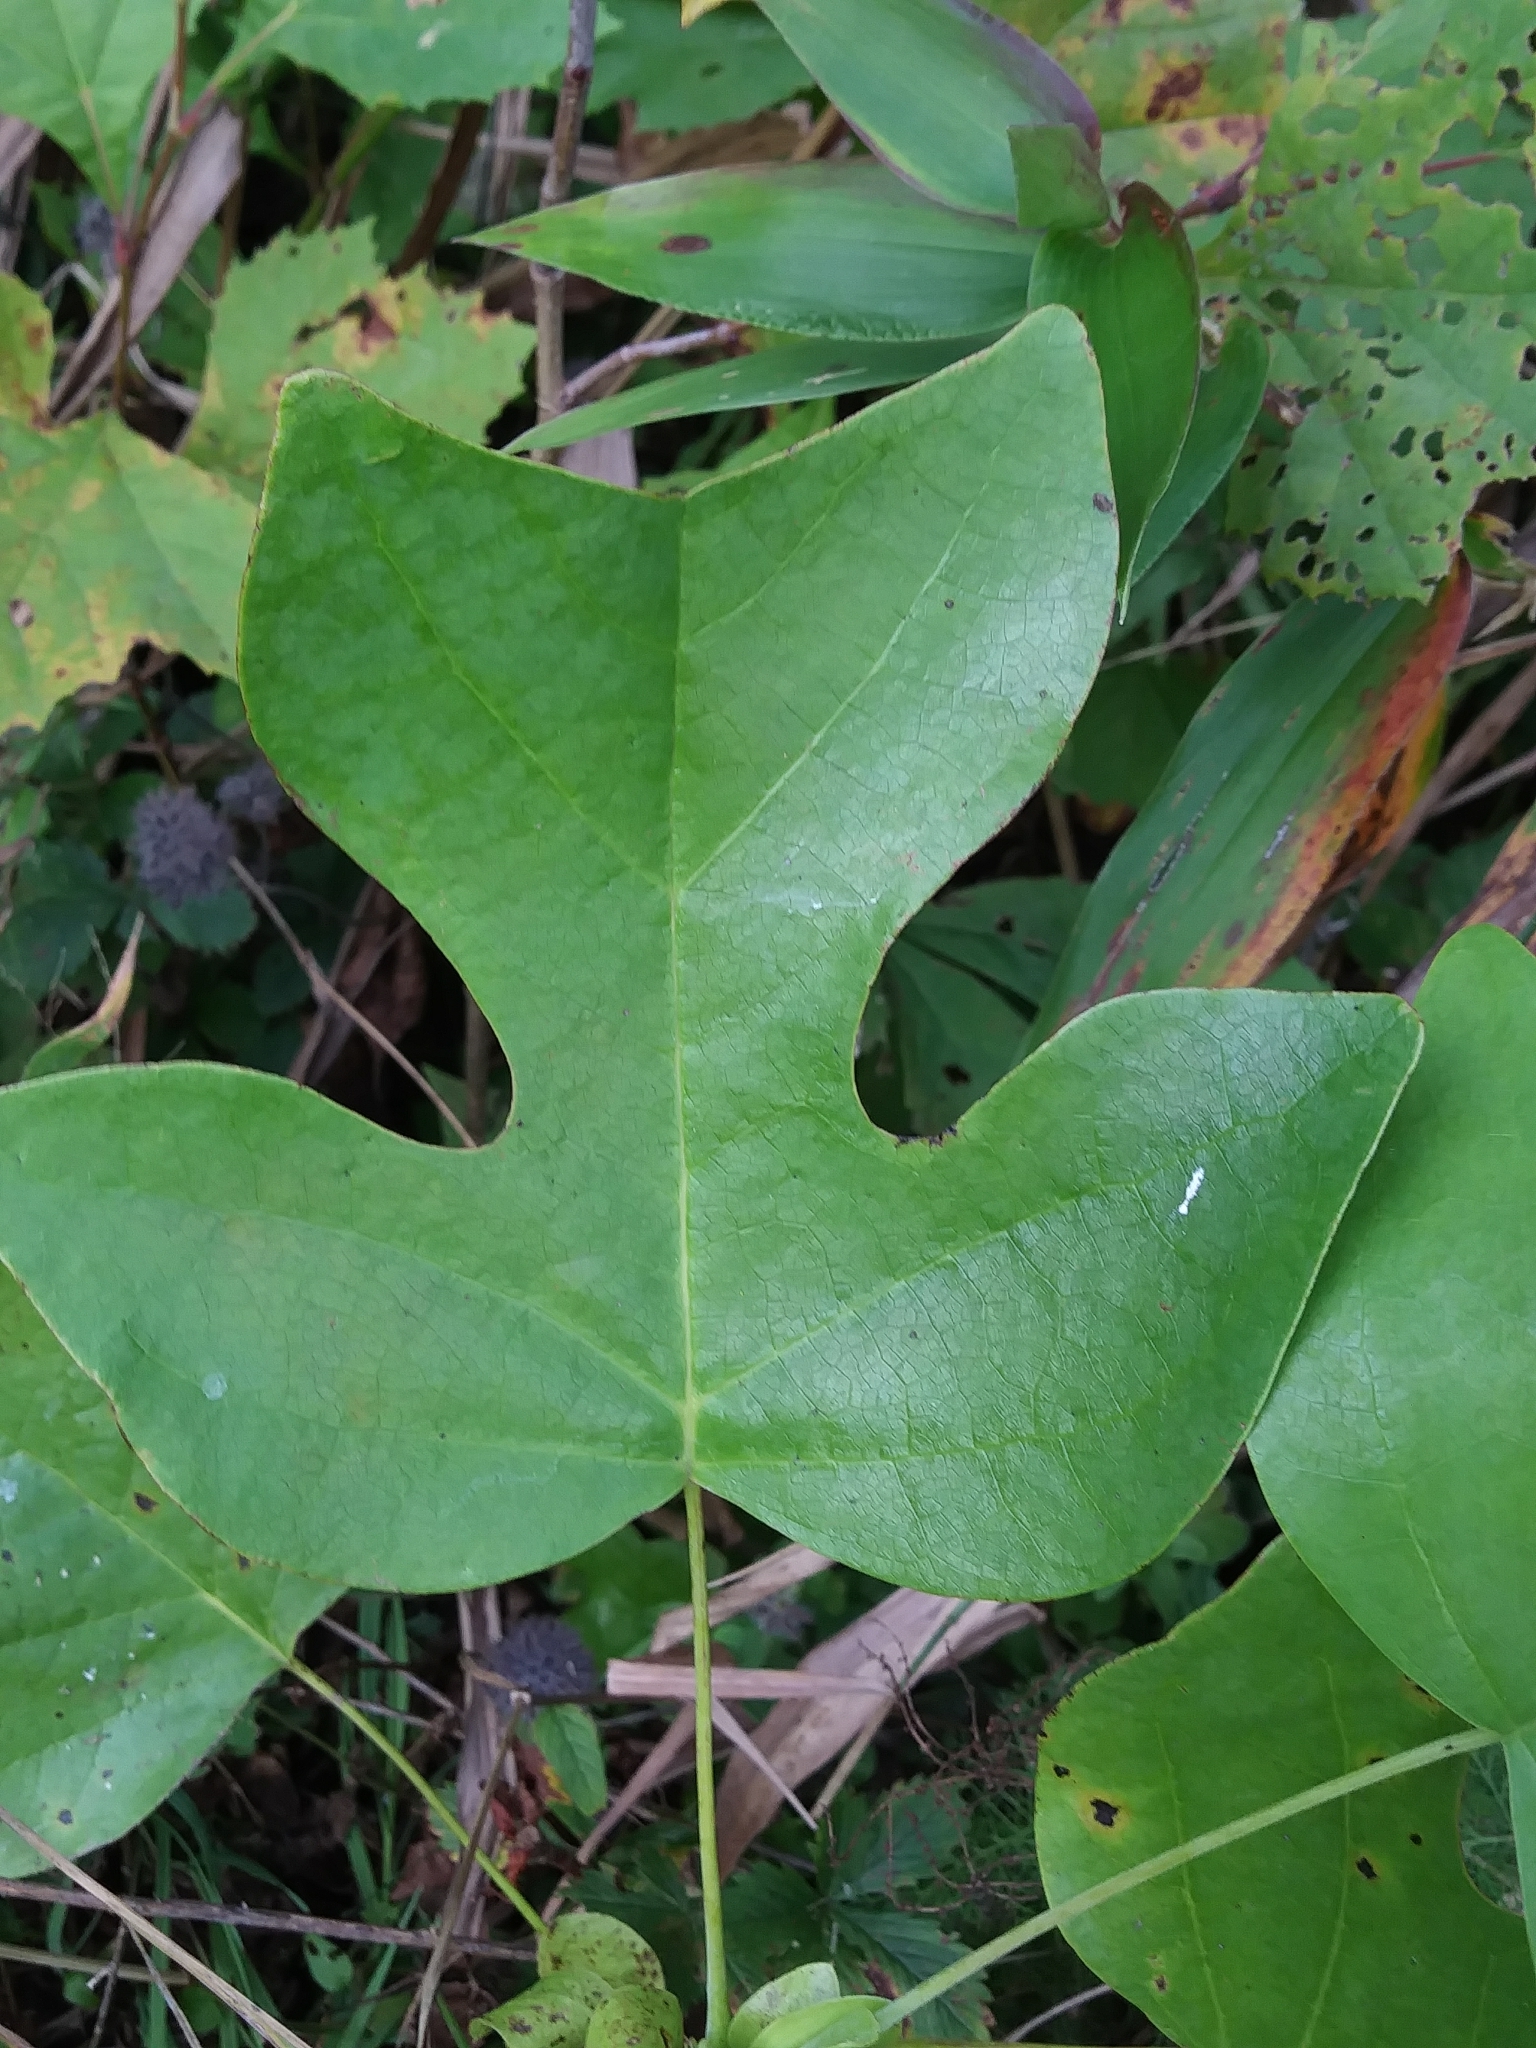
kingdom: Plantae
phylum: Tracheophyta
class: Magnoliopsida
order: Magnoliales
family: Magnoliaceae
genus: Liriodendron
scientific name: Liriodendron tulipifera
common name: Tulip tree
